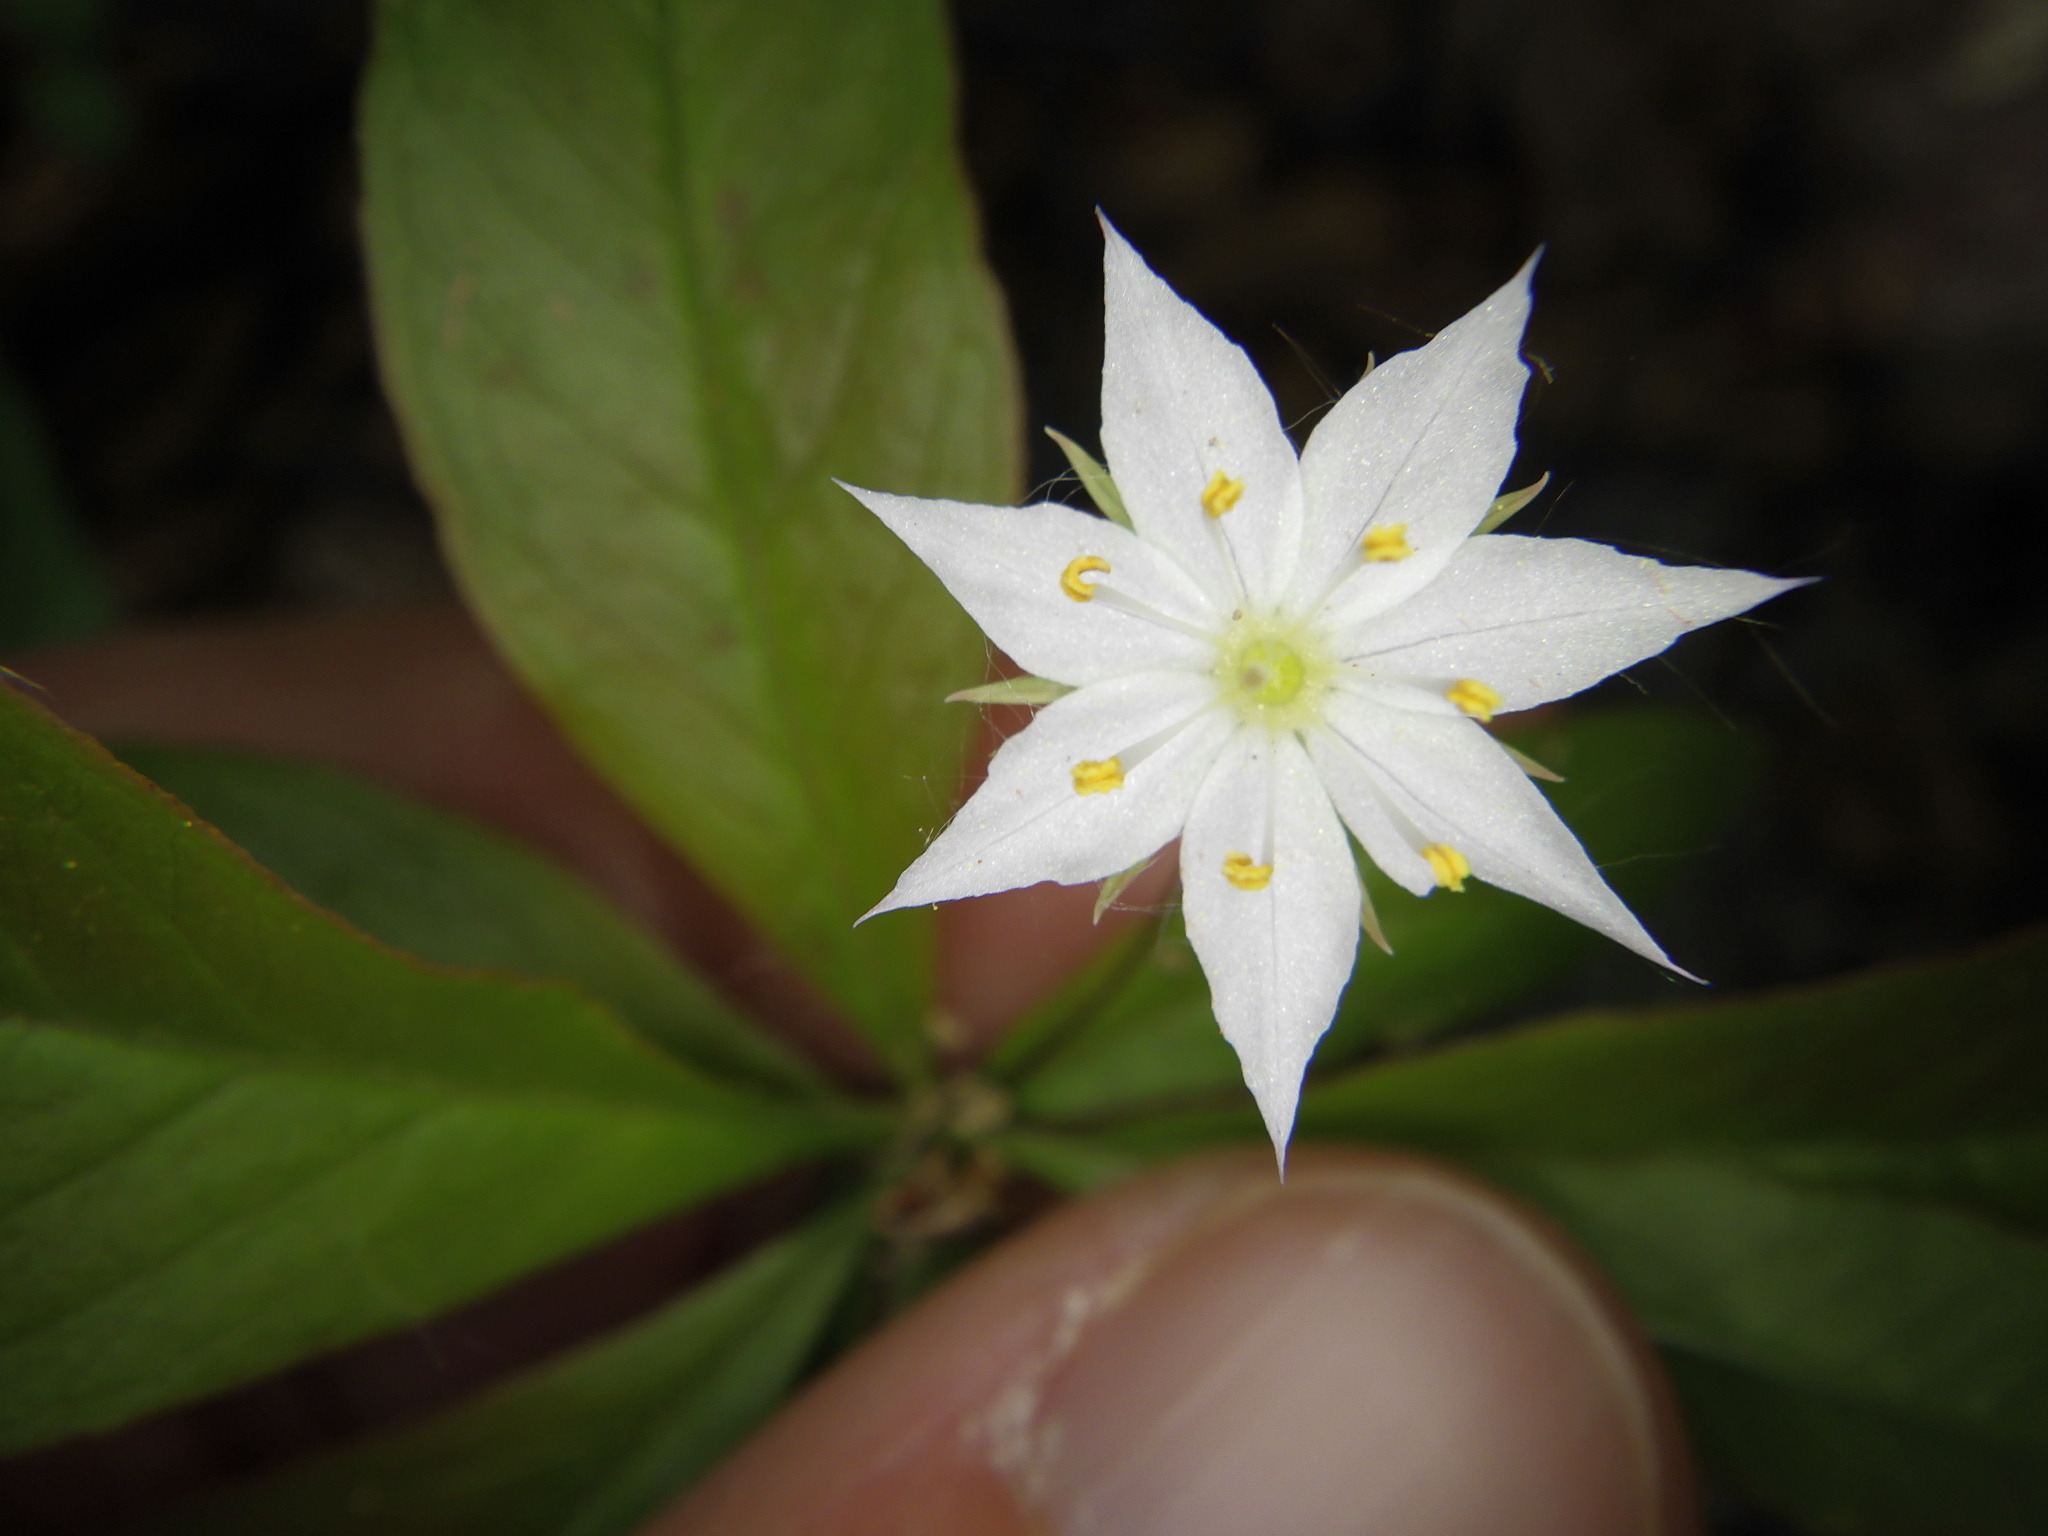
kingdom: Plantae
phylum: Tracheophyta
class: Magnoliopsida
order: Ericales
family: Primulaceae
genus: Lysimachia
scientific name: Lysimachia borealis
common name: American starflower
